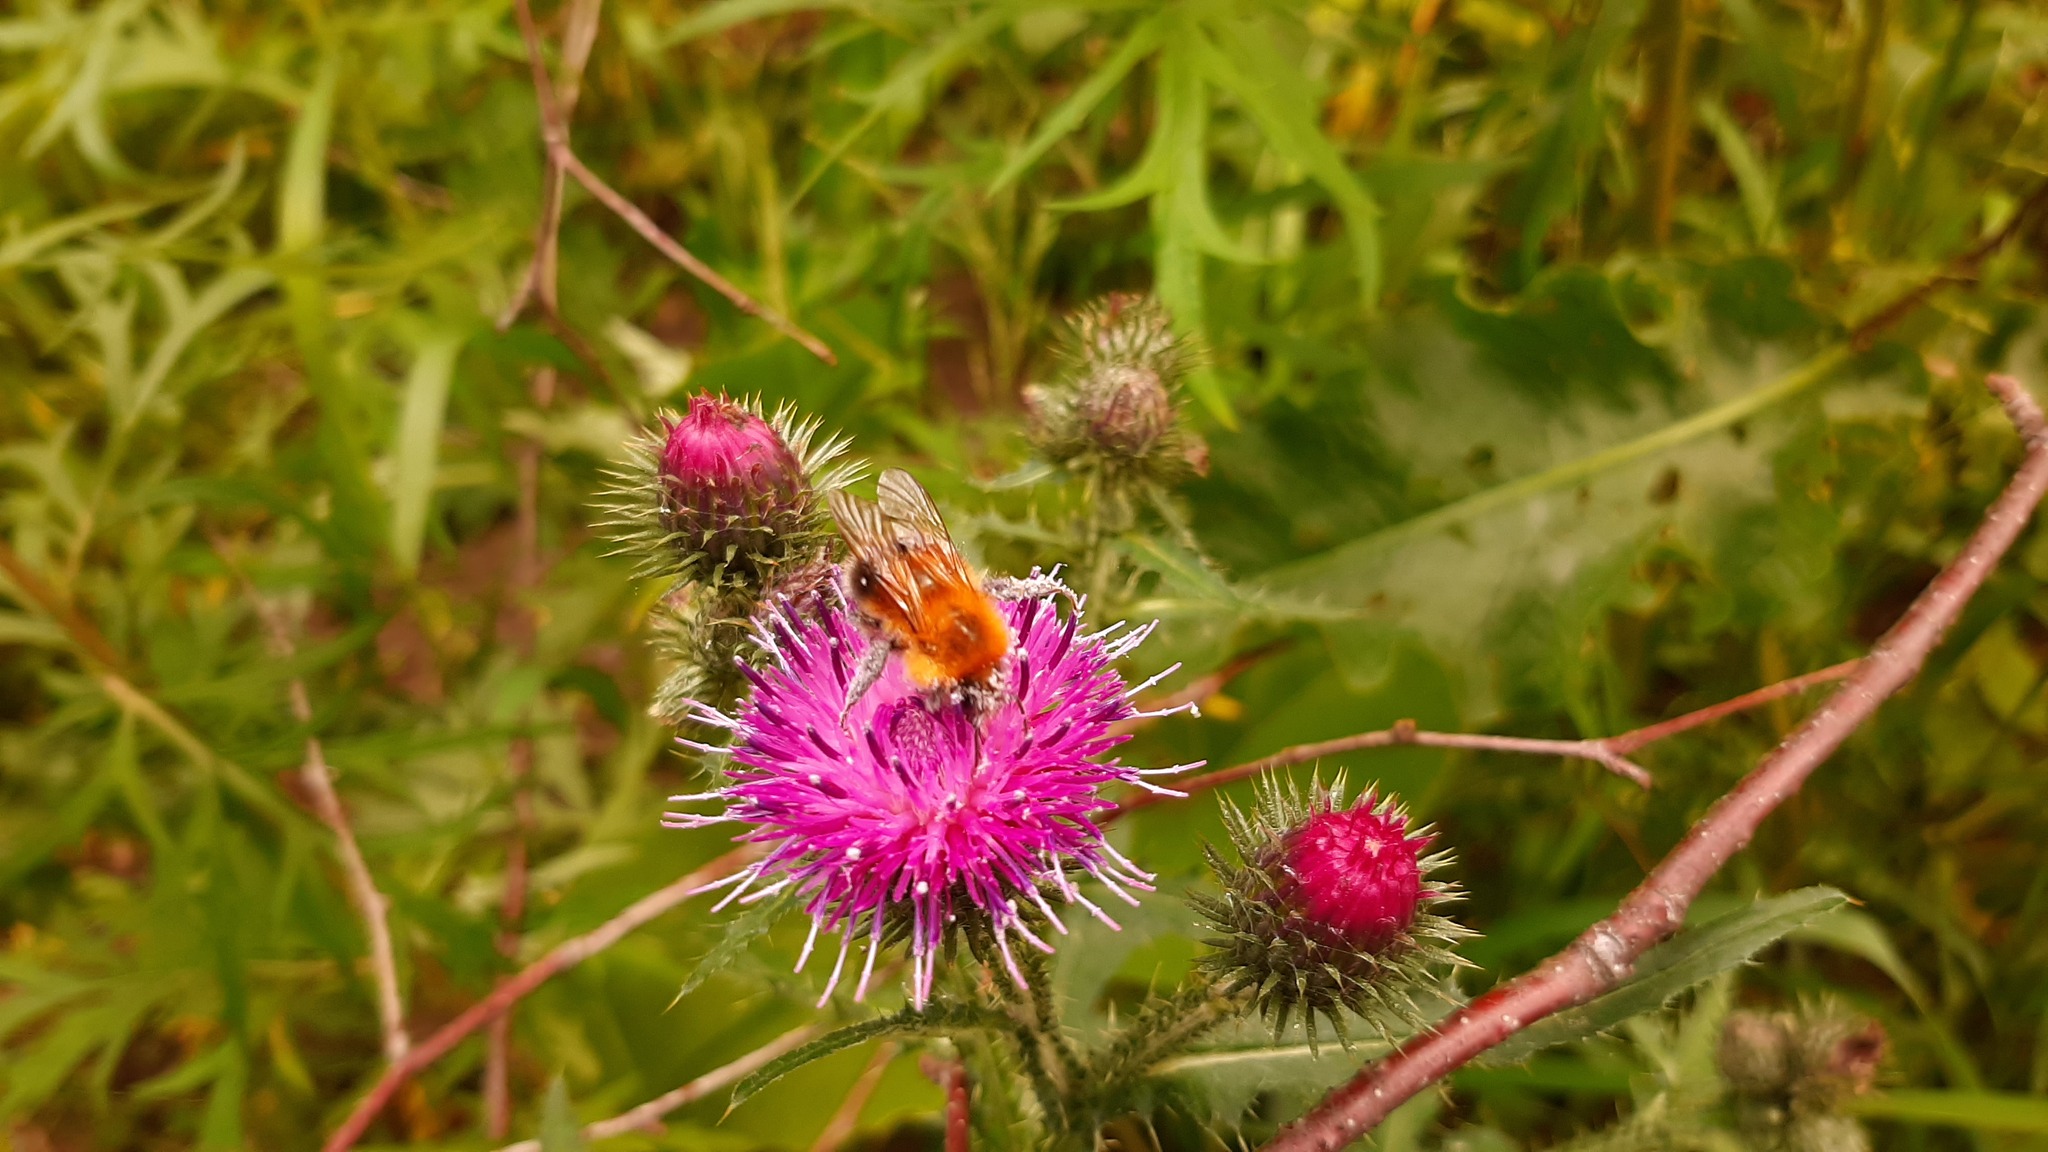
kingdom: Animalia
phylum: Arthropoda
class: Insecta
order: Hymenoptera
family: Apidae
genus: Bombus
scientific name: Bombus hypnorum
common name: New garden bumblebee
